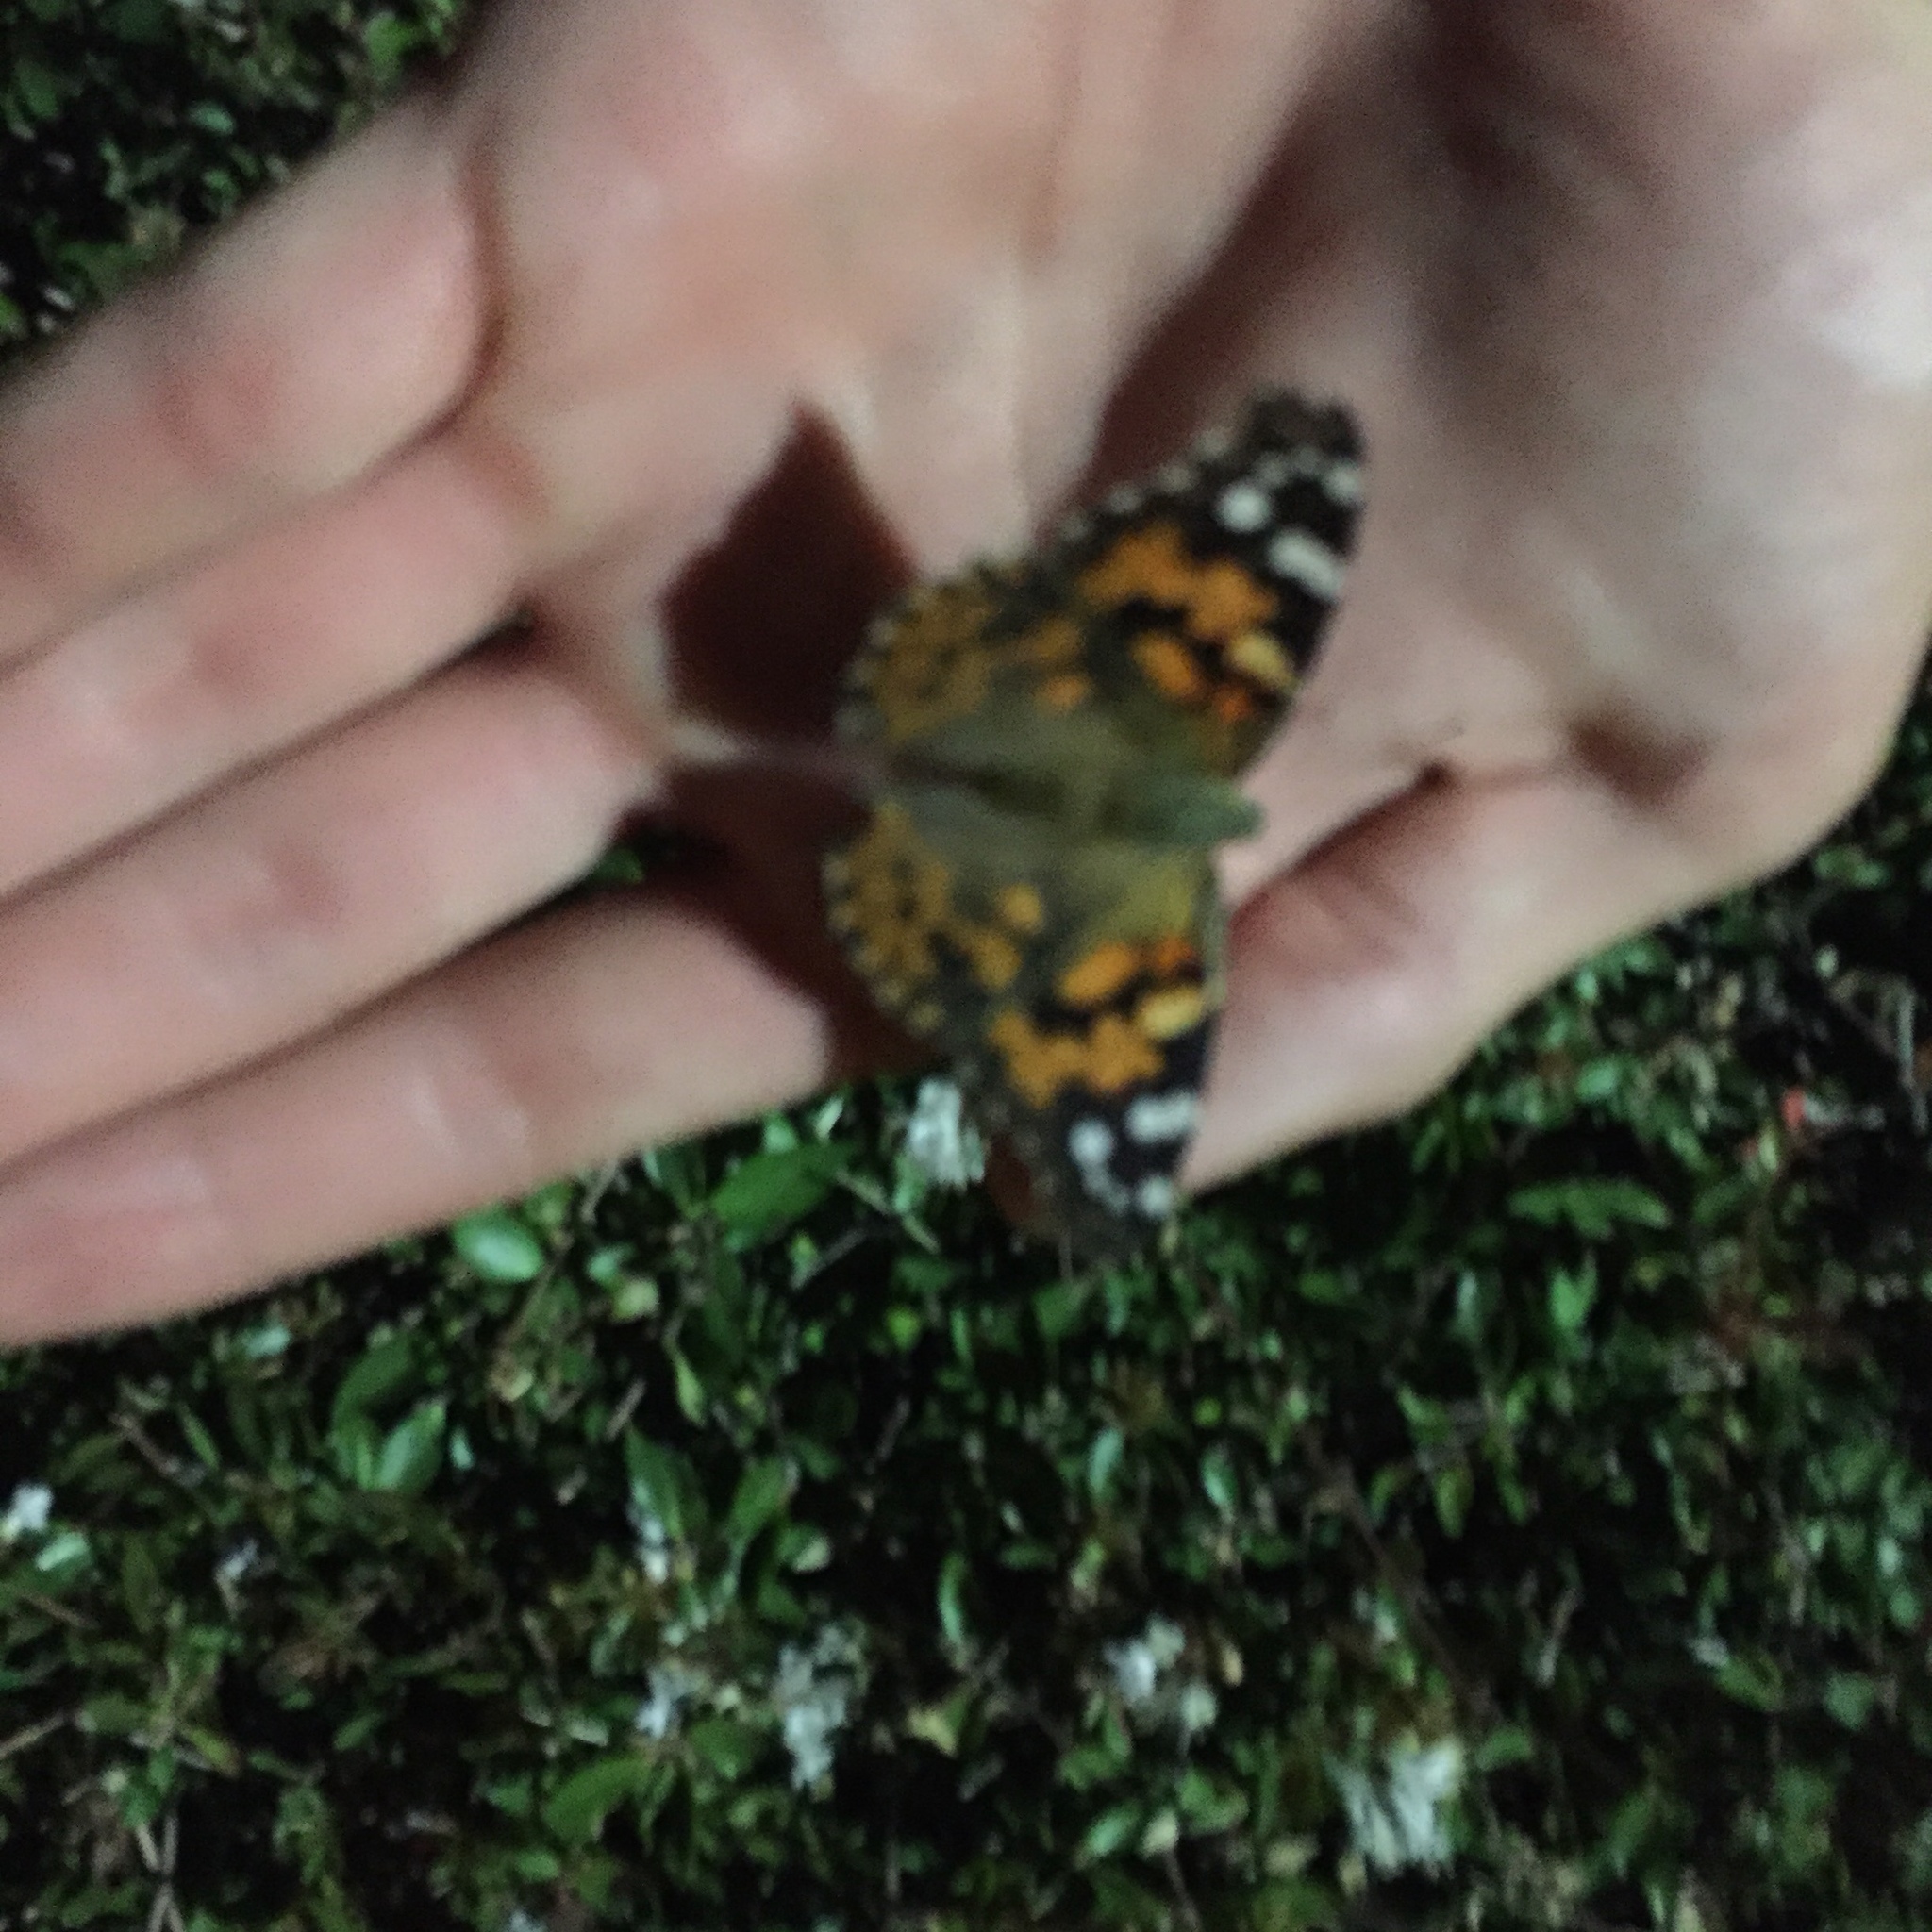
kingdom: Animalia
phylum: Arthropoda
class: Insecta
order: Lepidoptera
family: Nymphalidae
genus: Vanessa
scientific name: Vanessa cardui
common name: Painted lady
